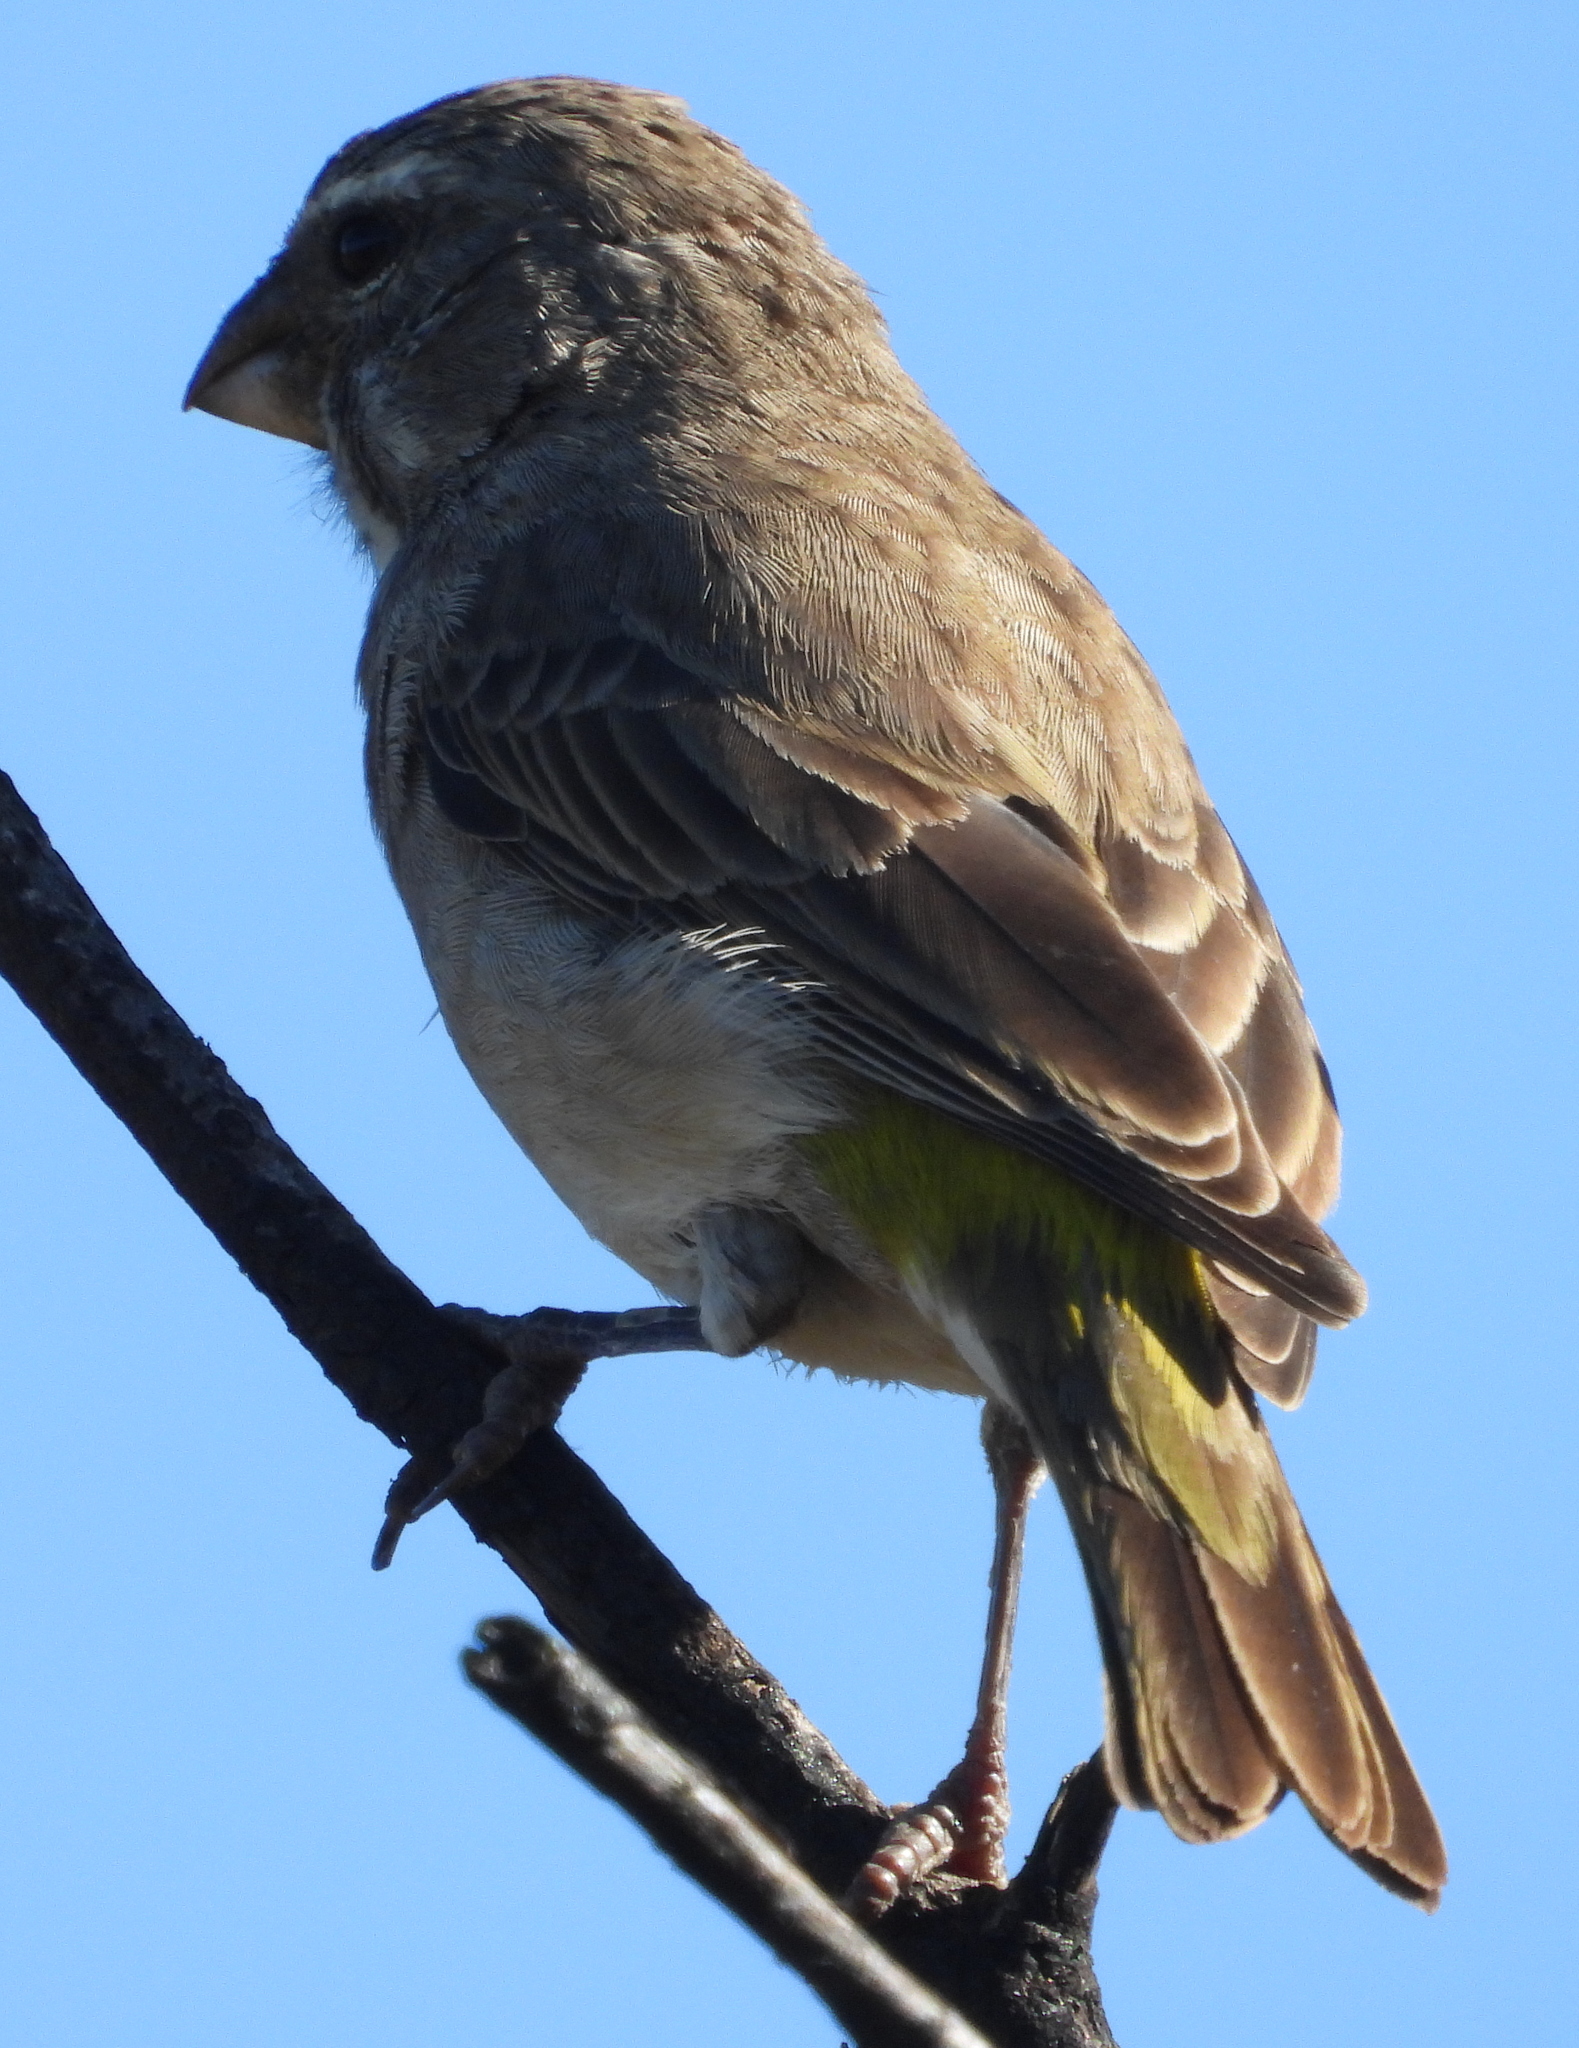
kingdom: Animalia
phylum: Chordata
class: Aves
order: Passeriformes
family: Fringillidae
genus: Crithagra
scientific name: Crithagra albogularis
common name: White-throated canary
